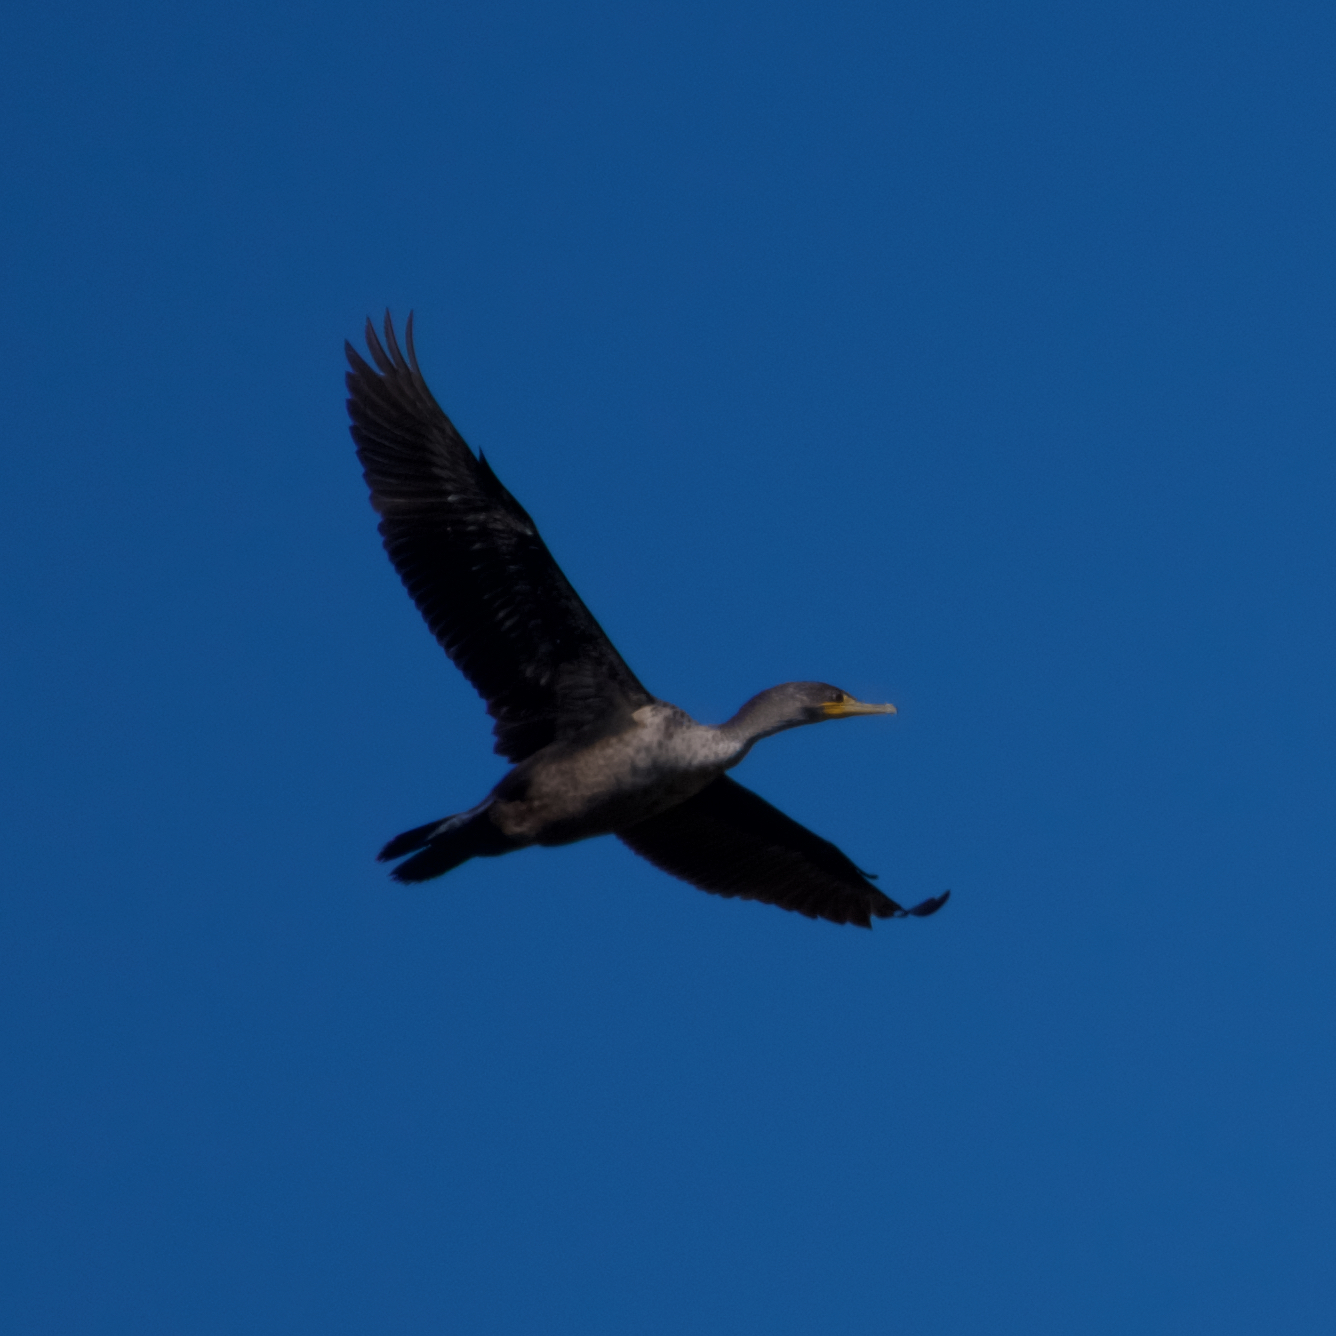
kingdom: Animalia
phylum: Chordata
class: Aves
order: Suliformes
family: Phalacrocoracidae
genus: Phalacrocorax
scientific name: Phalacrocorax auritus
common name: Double-crested cormorant
